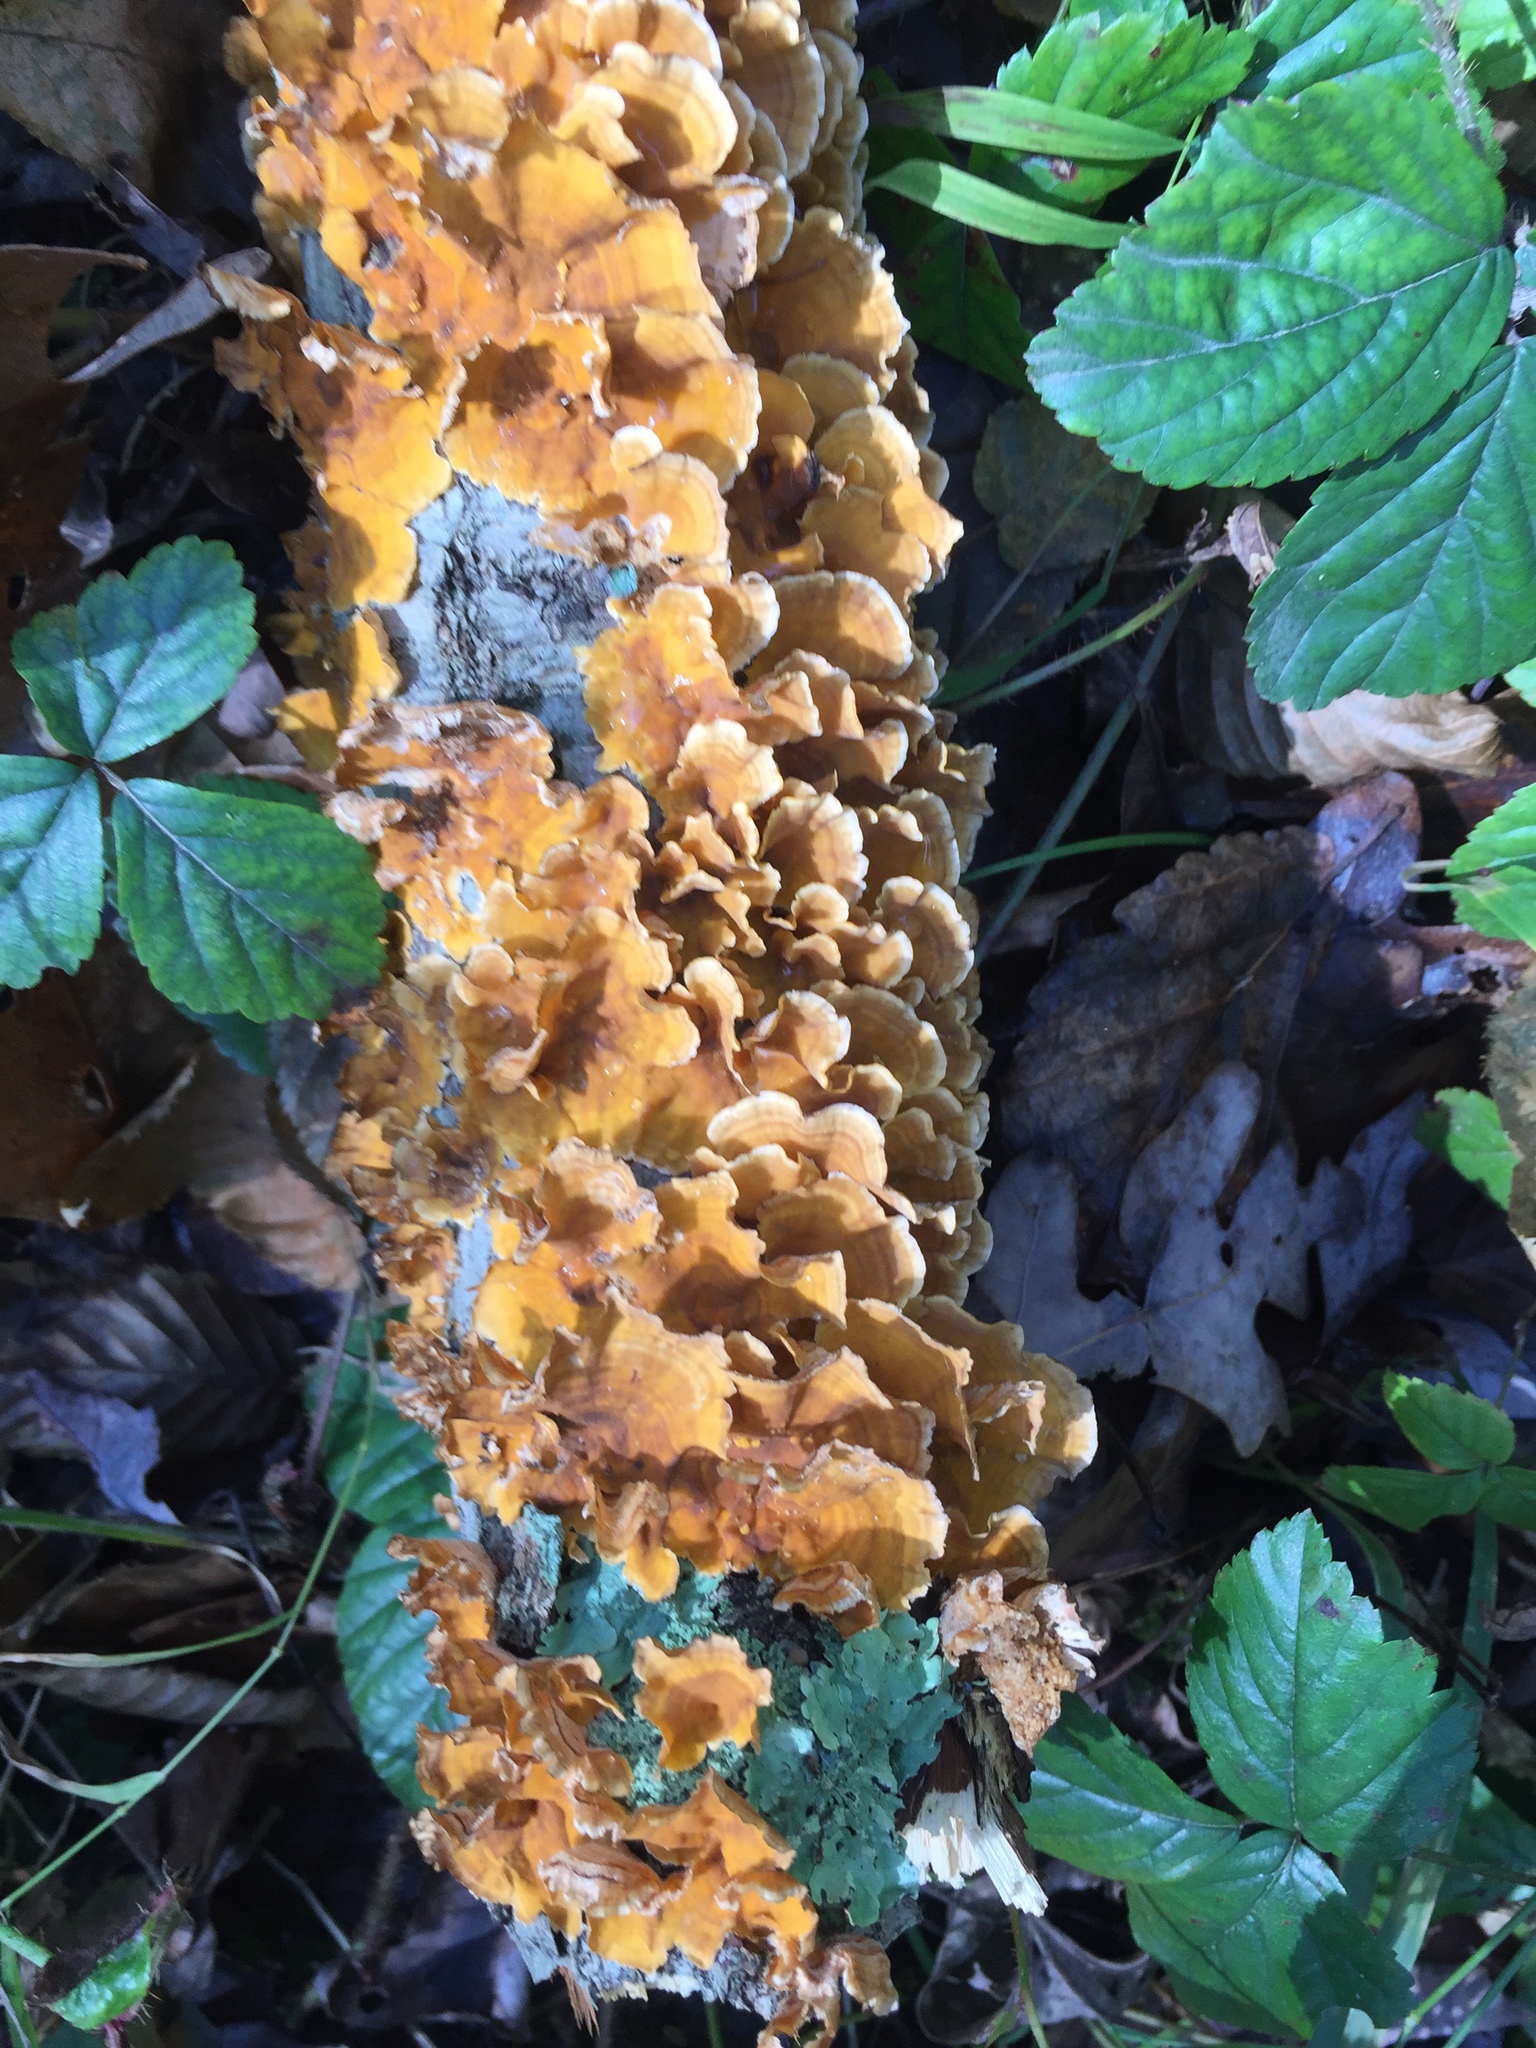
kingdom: Fungi
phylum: Basidiomycota
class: Agaricomycetes
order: Russulales
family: Stereaceae
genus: Stereum
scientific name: Stereum complicatum
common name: Crowded parchment
